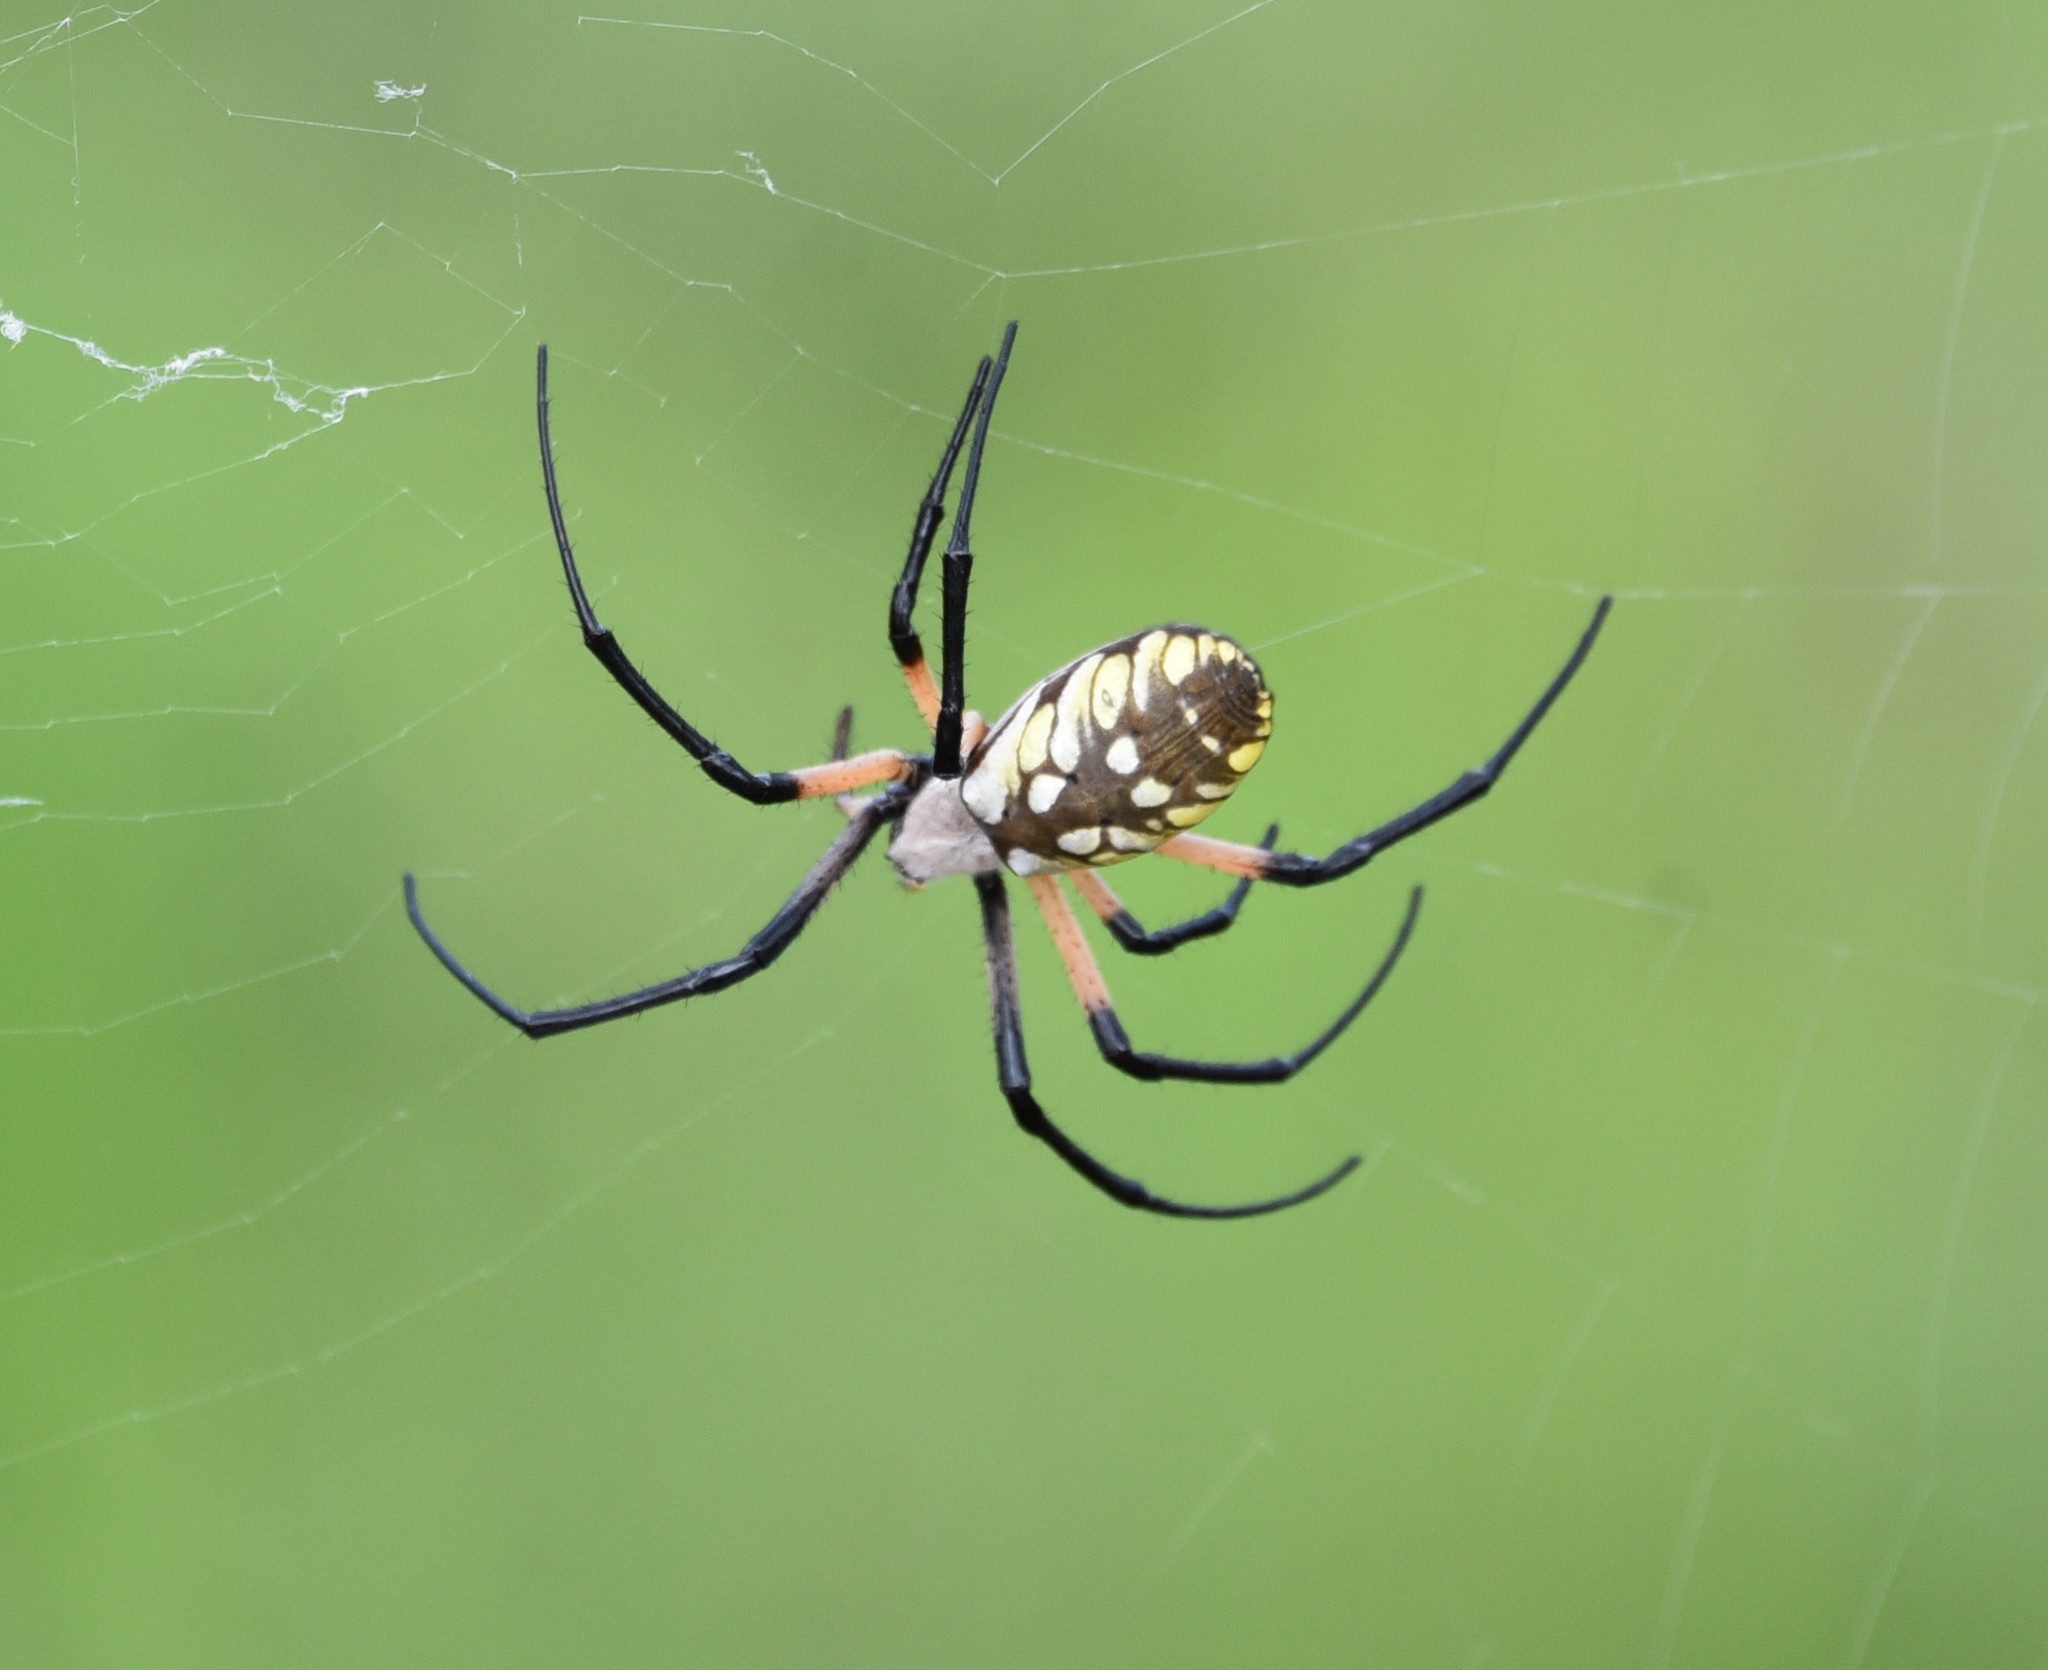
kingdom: Animalia
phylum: Arthropoda
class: Arachnida
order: Araneae
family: Araneidae
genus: Argiope
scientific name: Argiope aurantia
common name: Orb weavers
